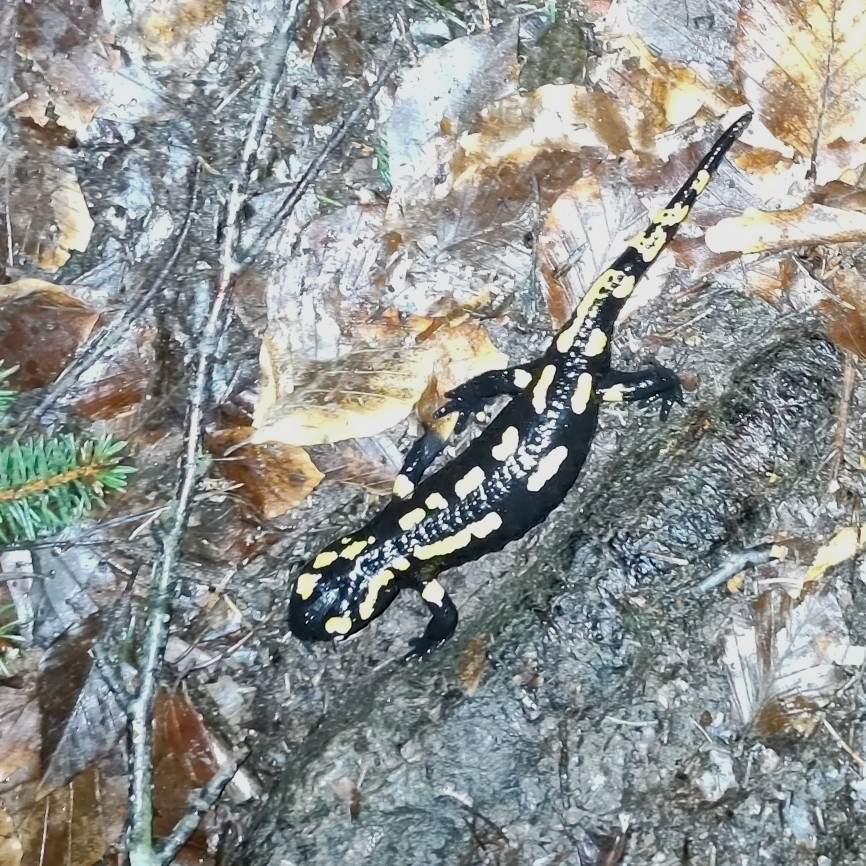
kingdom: Animalia
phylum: Chordata
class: Amphibia
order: Caudata
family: Salamandridae
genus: Salamandra
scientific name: Salamandra salamandra
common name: Fire salamander
